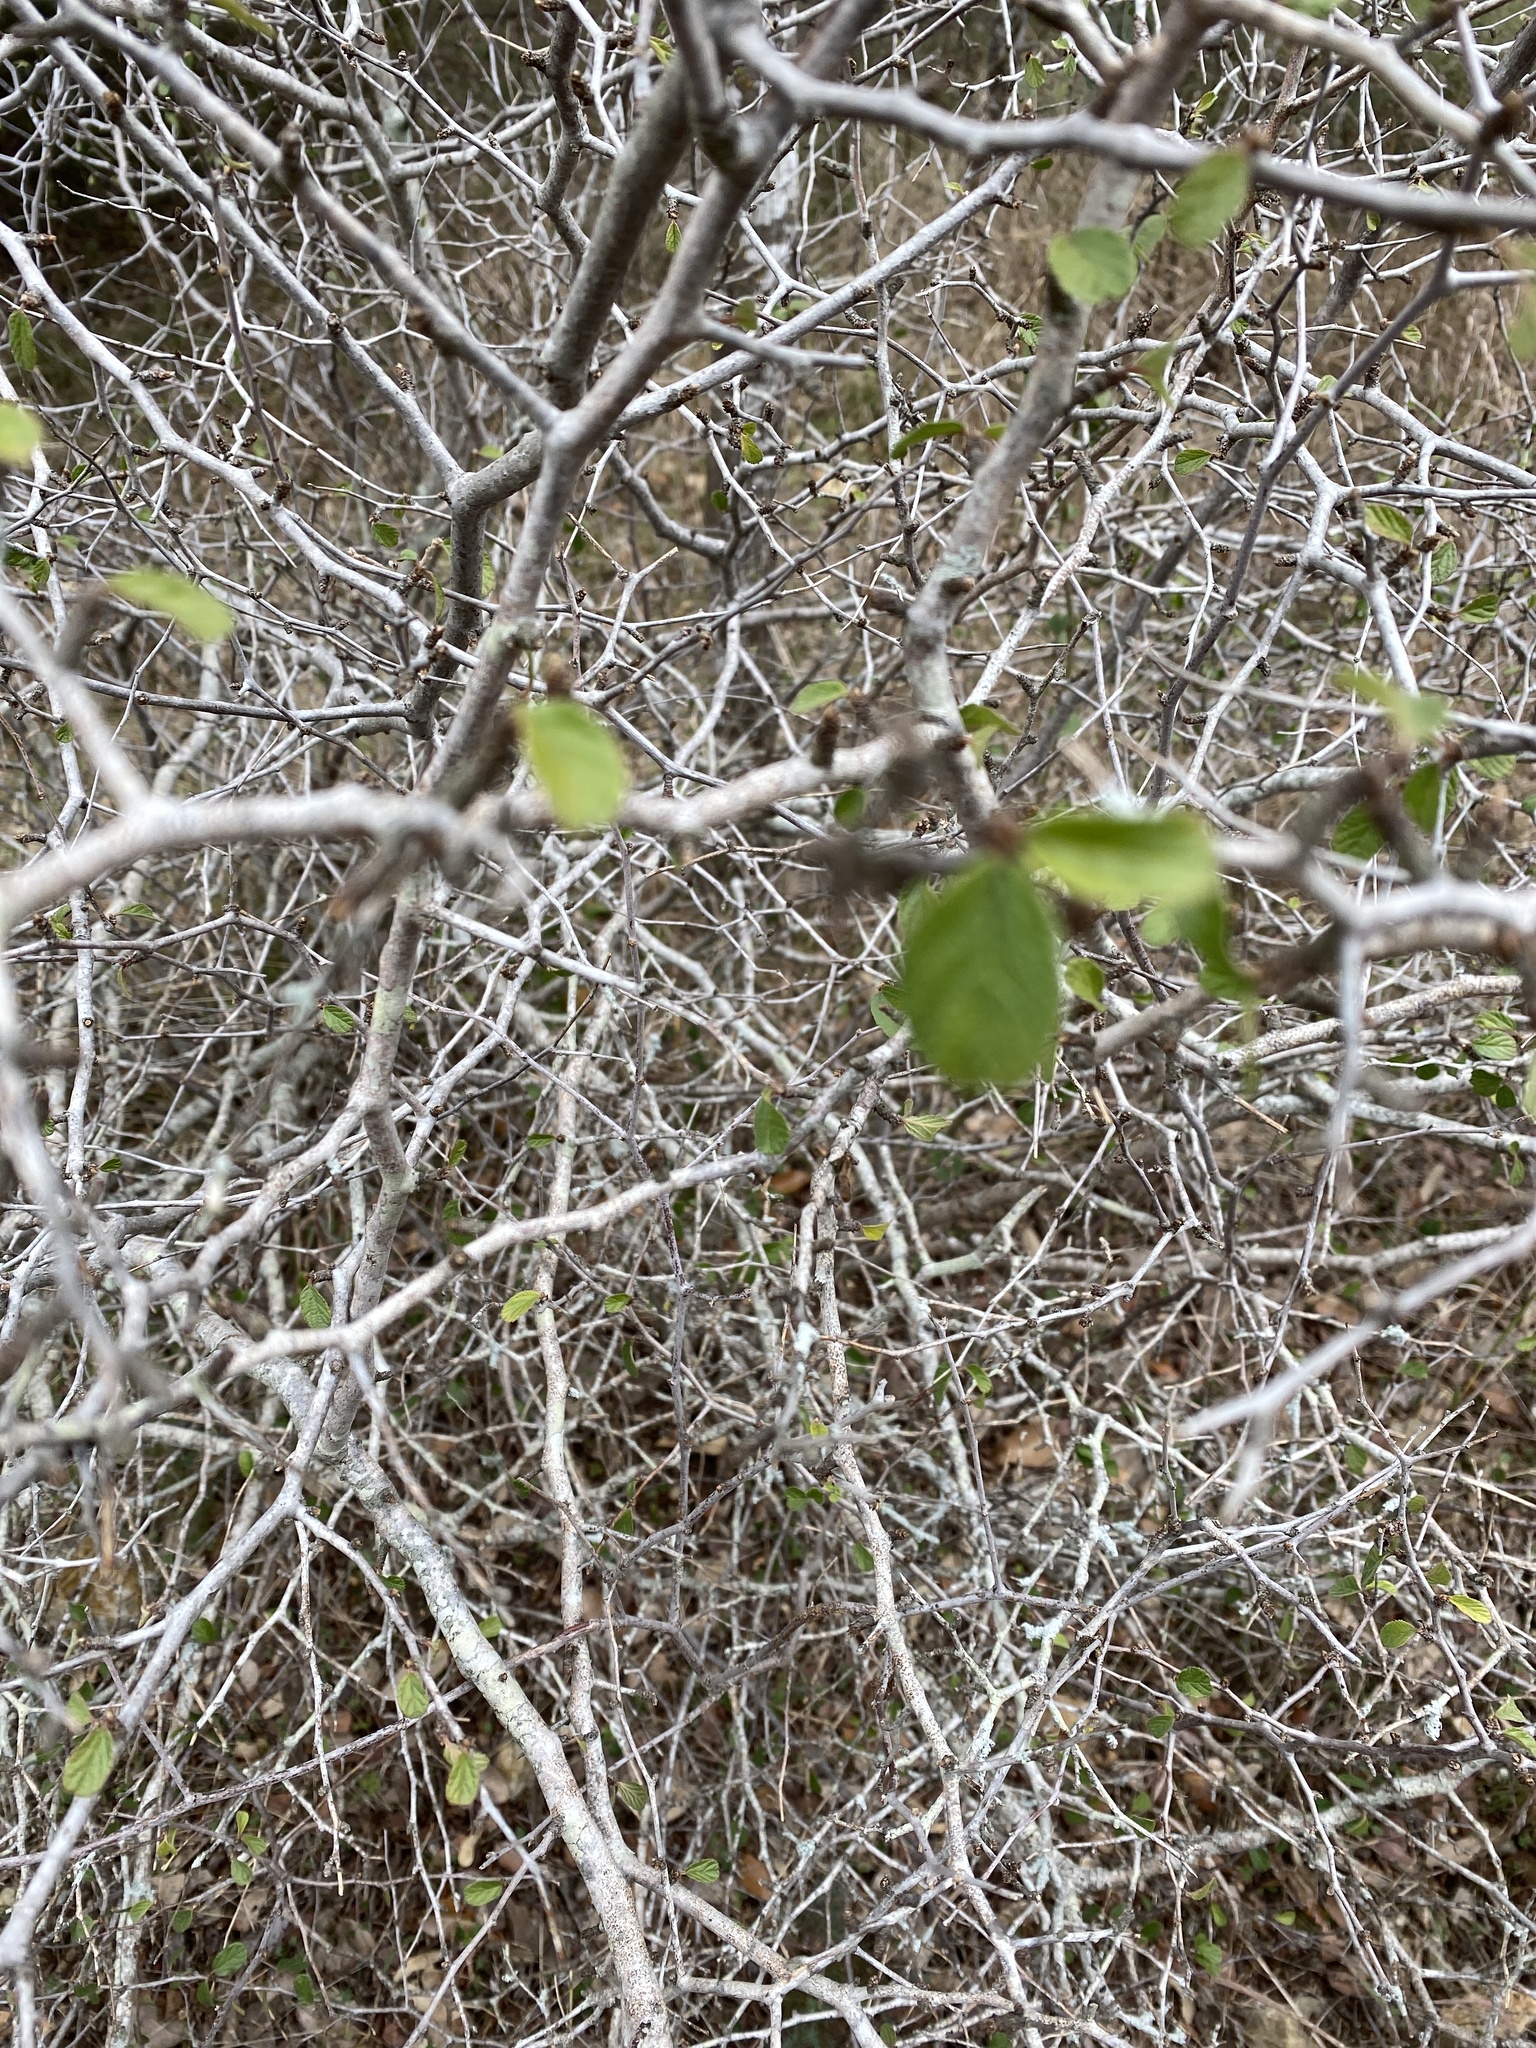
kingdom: Plantae
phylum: Tracheophyta
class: Magnoliopsida
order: Rosales
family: Rhamnaceae
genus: Colubrina
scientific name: Colubrina texensis
